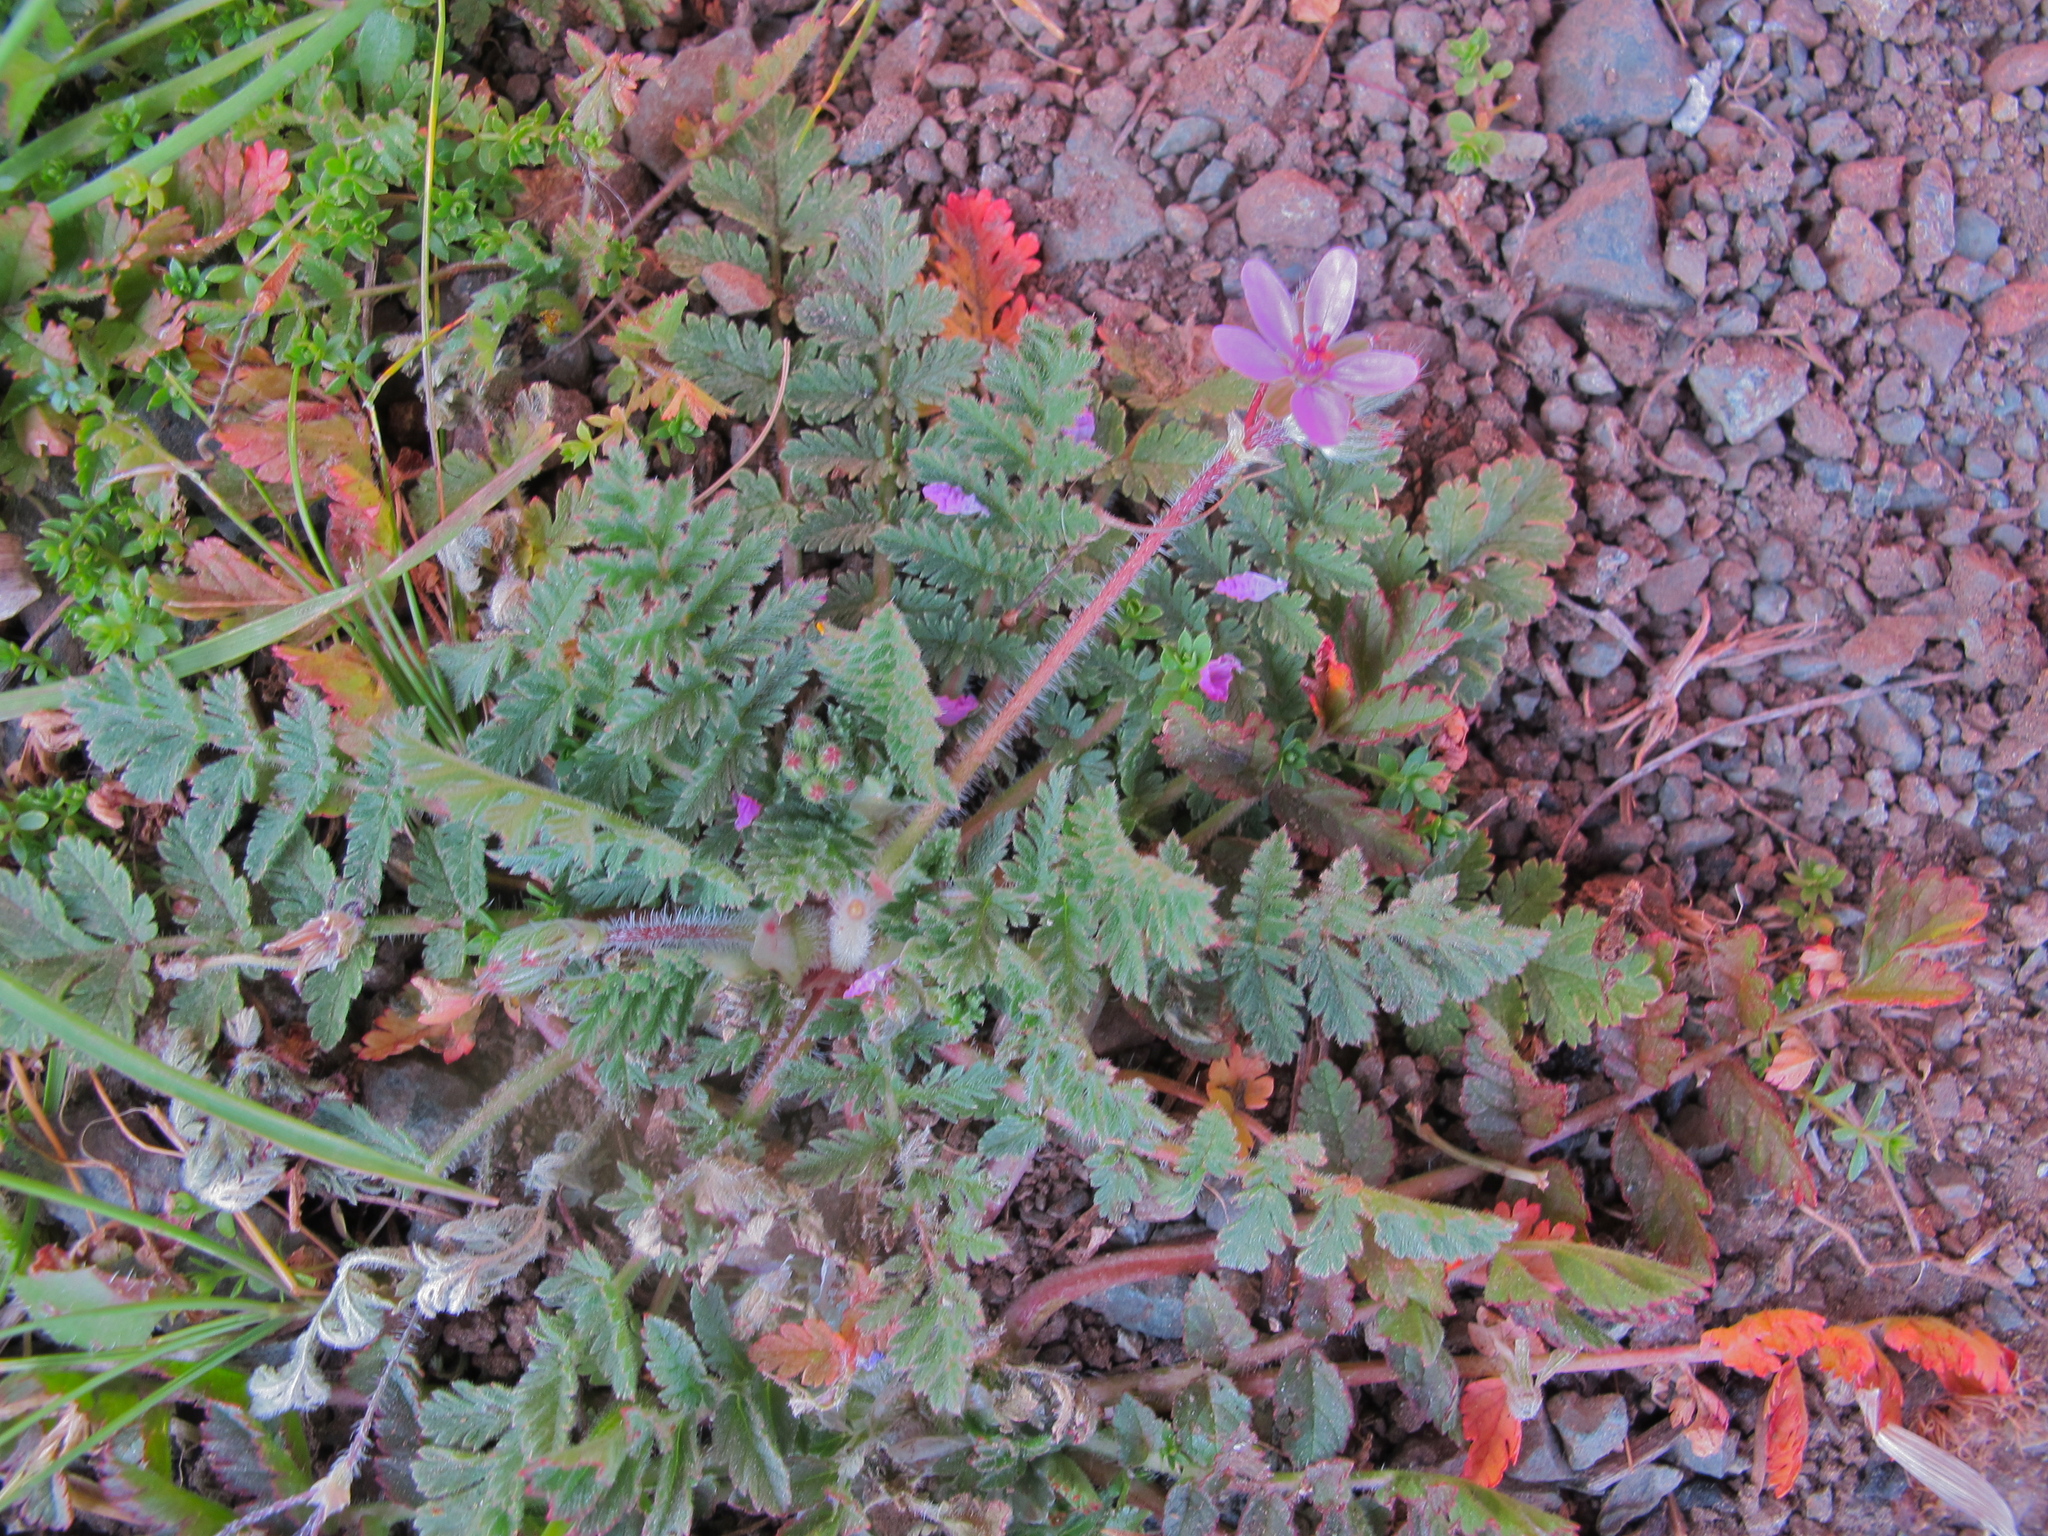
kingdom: Plantae
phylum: Tracheophyta
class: Magnoliopsida
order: Geraniales
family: Geraniaceae
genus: Erodium
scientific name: Erodium cicutarium
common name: Common stork's-bill
